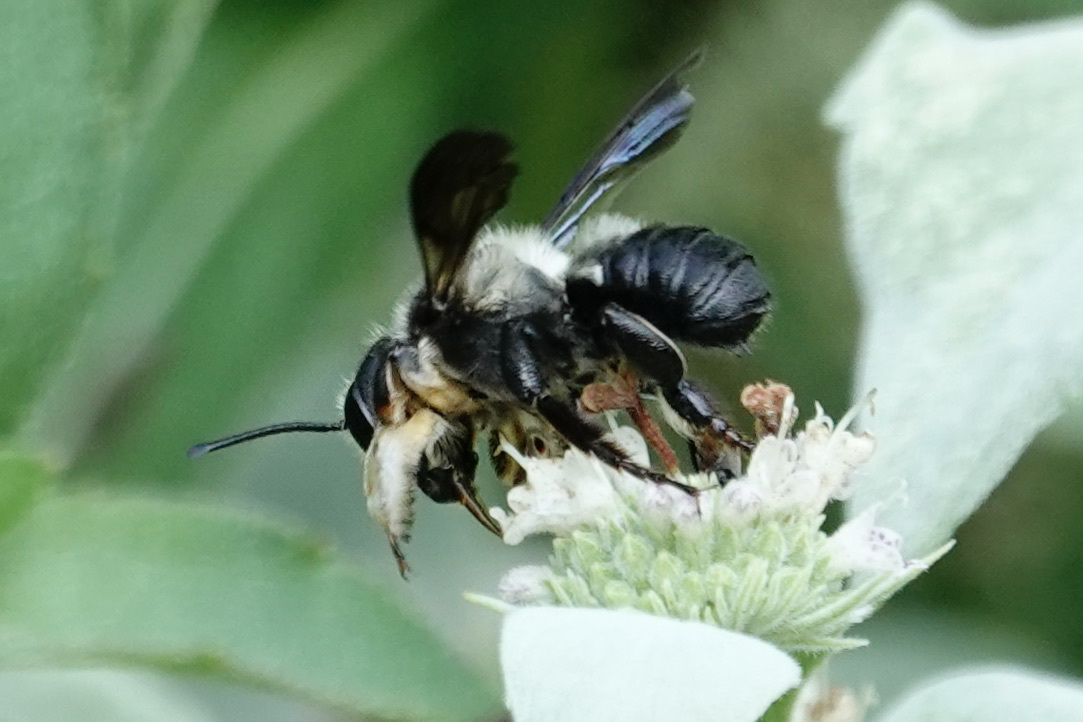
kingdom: Animalia
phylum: Arthropoda
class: Insecta
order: Hymenoptera
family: Megachilidae
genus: Megachile
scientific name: Megachile xylocopoides
